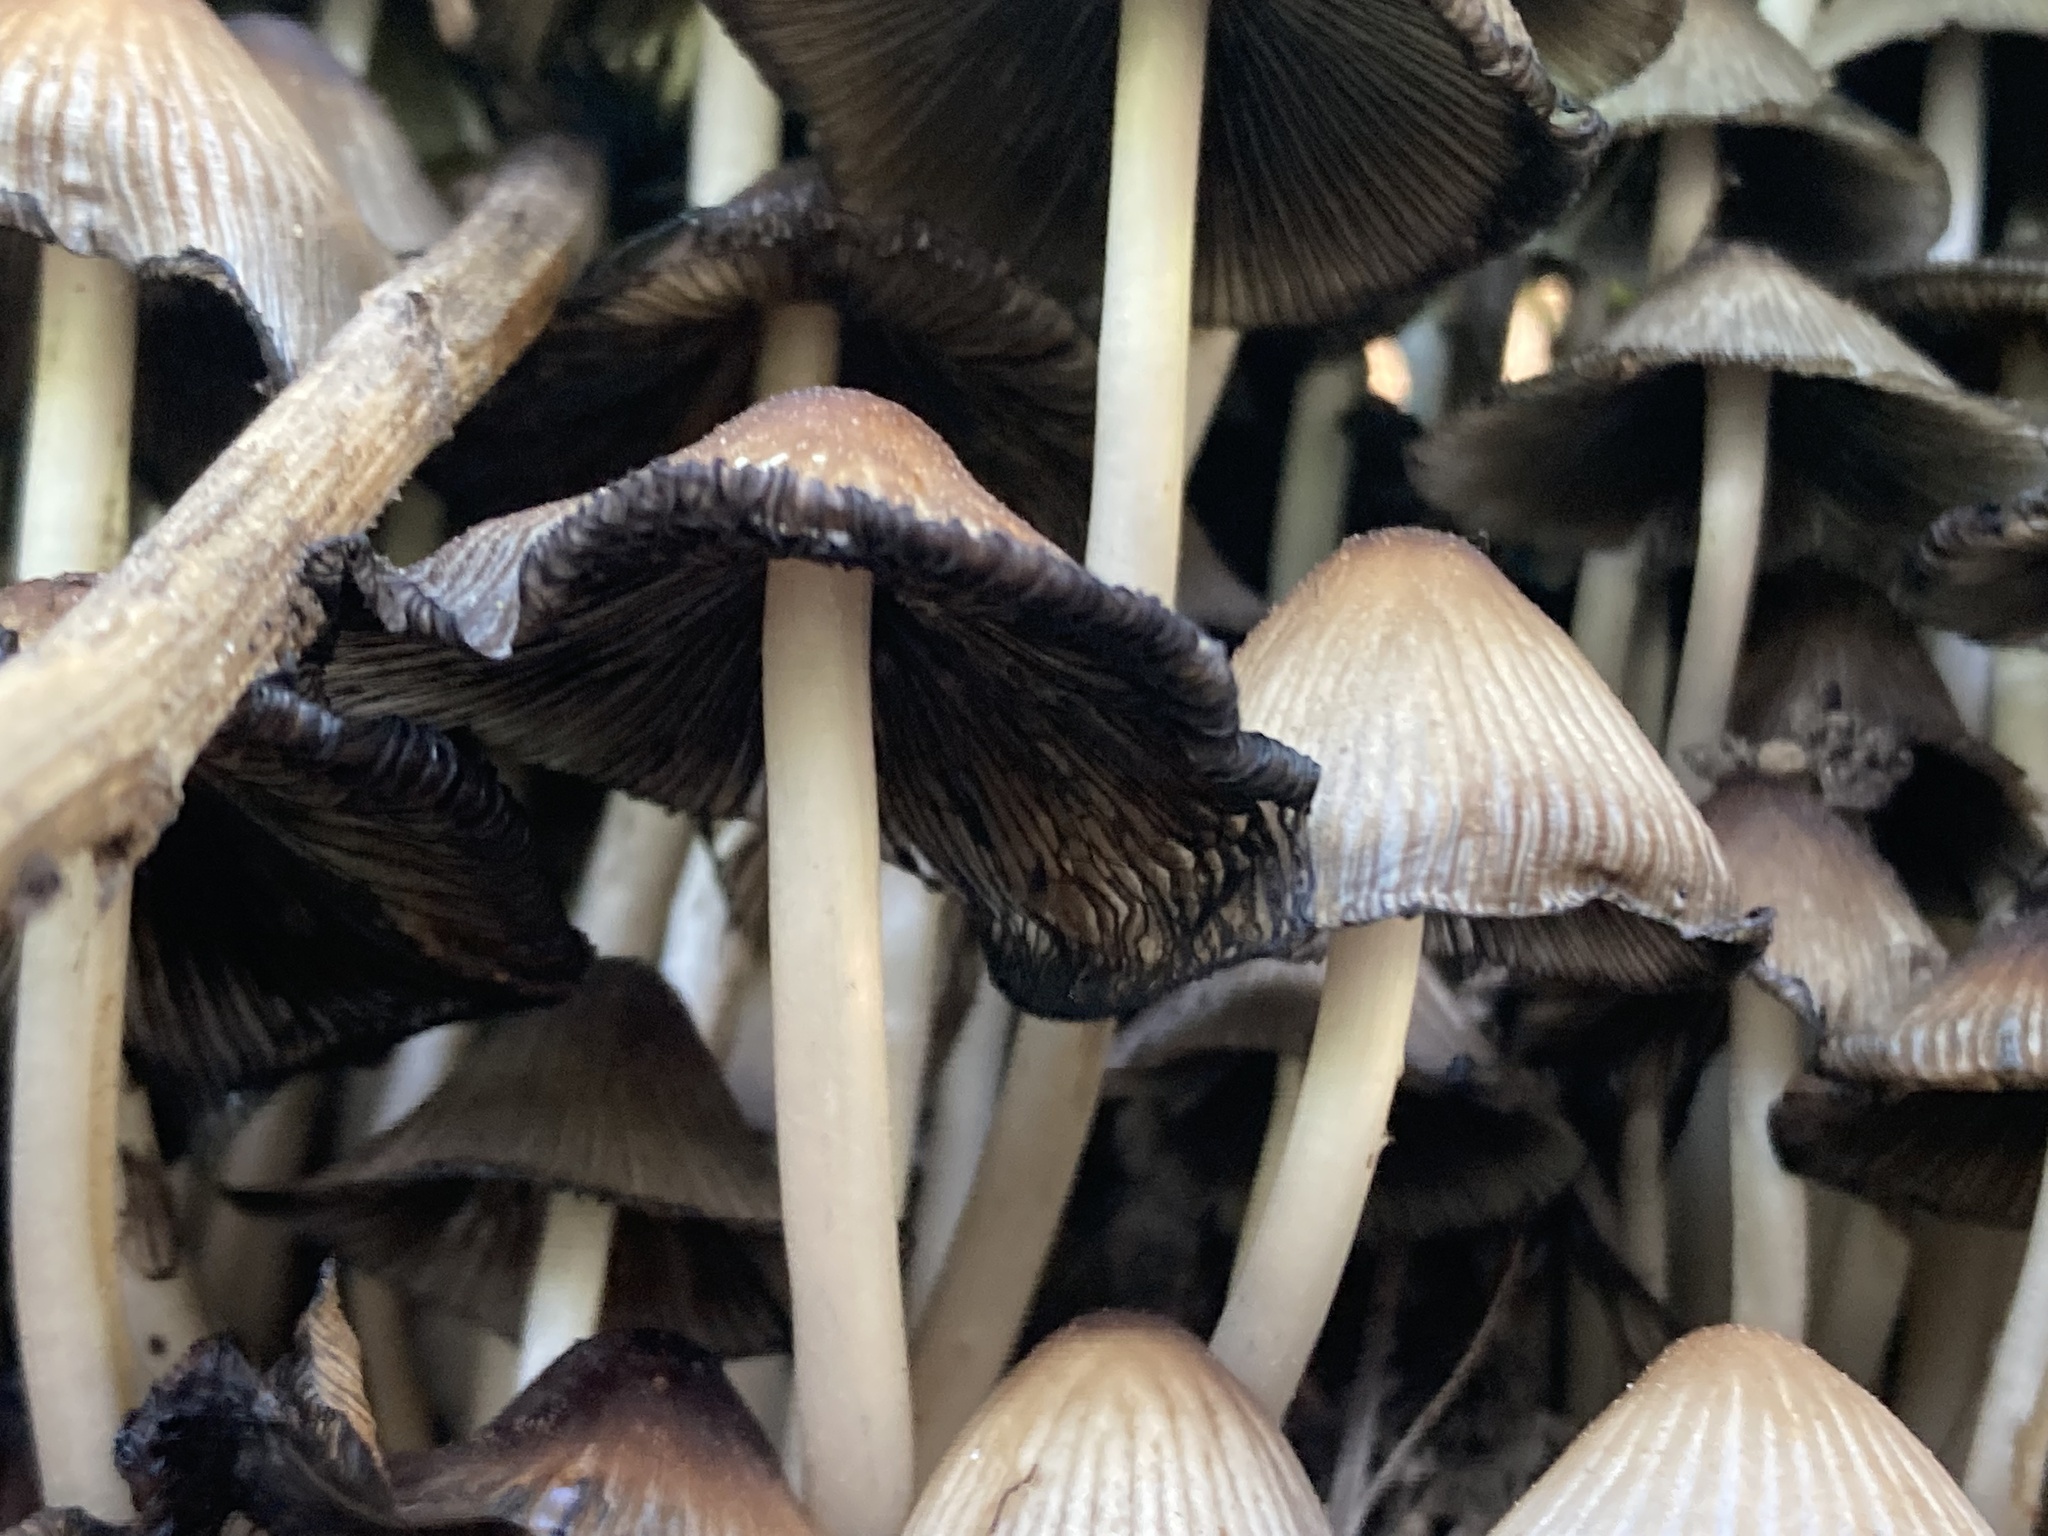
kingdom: Fungi
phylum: Basidiomycota
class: Agaricomycetes
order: Agaricales
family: Psathyrellaceae
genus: Coprinellus
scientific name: Coprinellus
